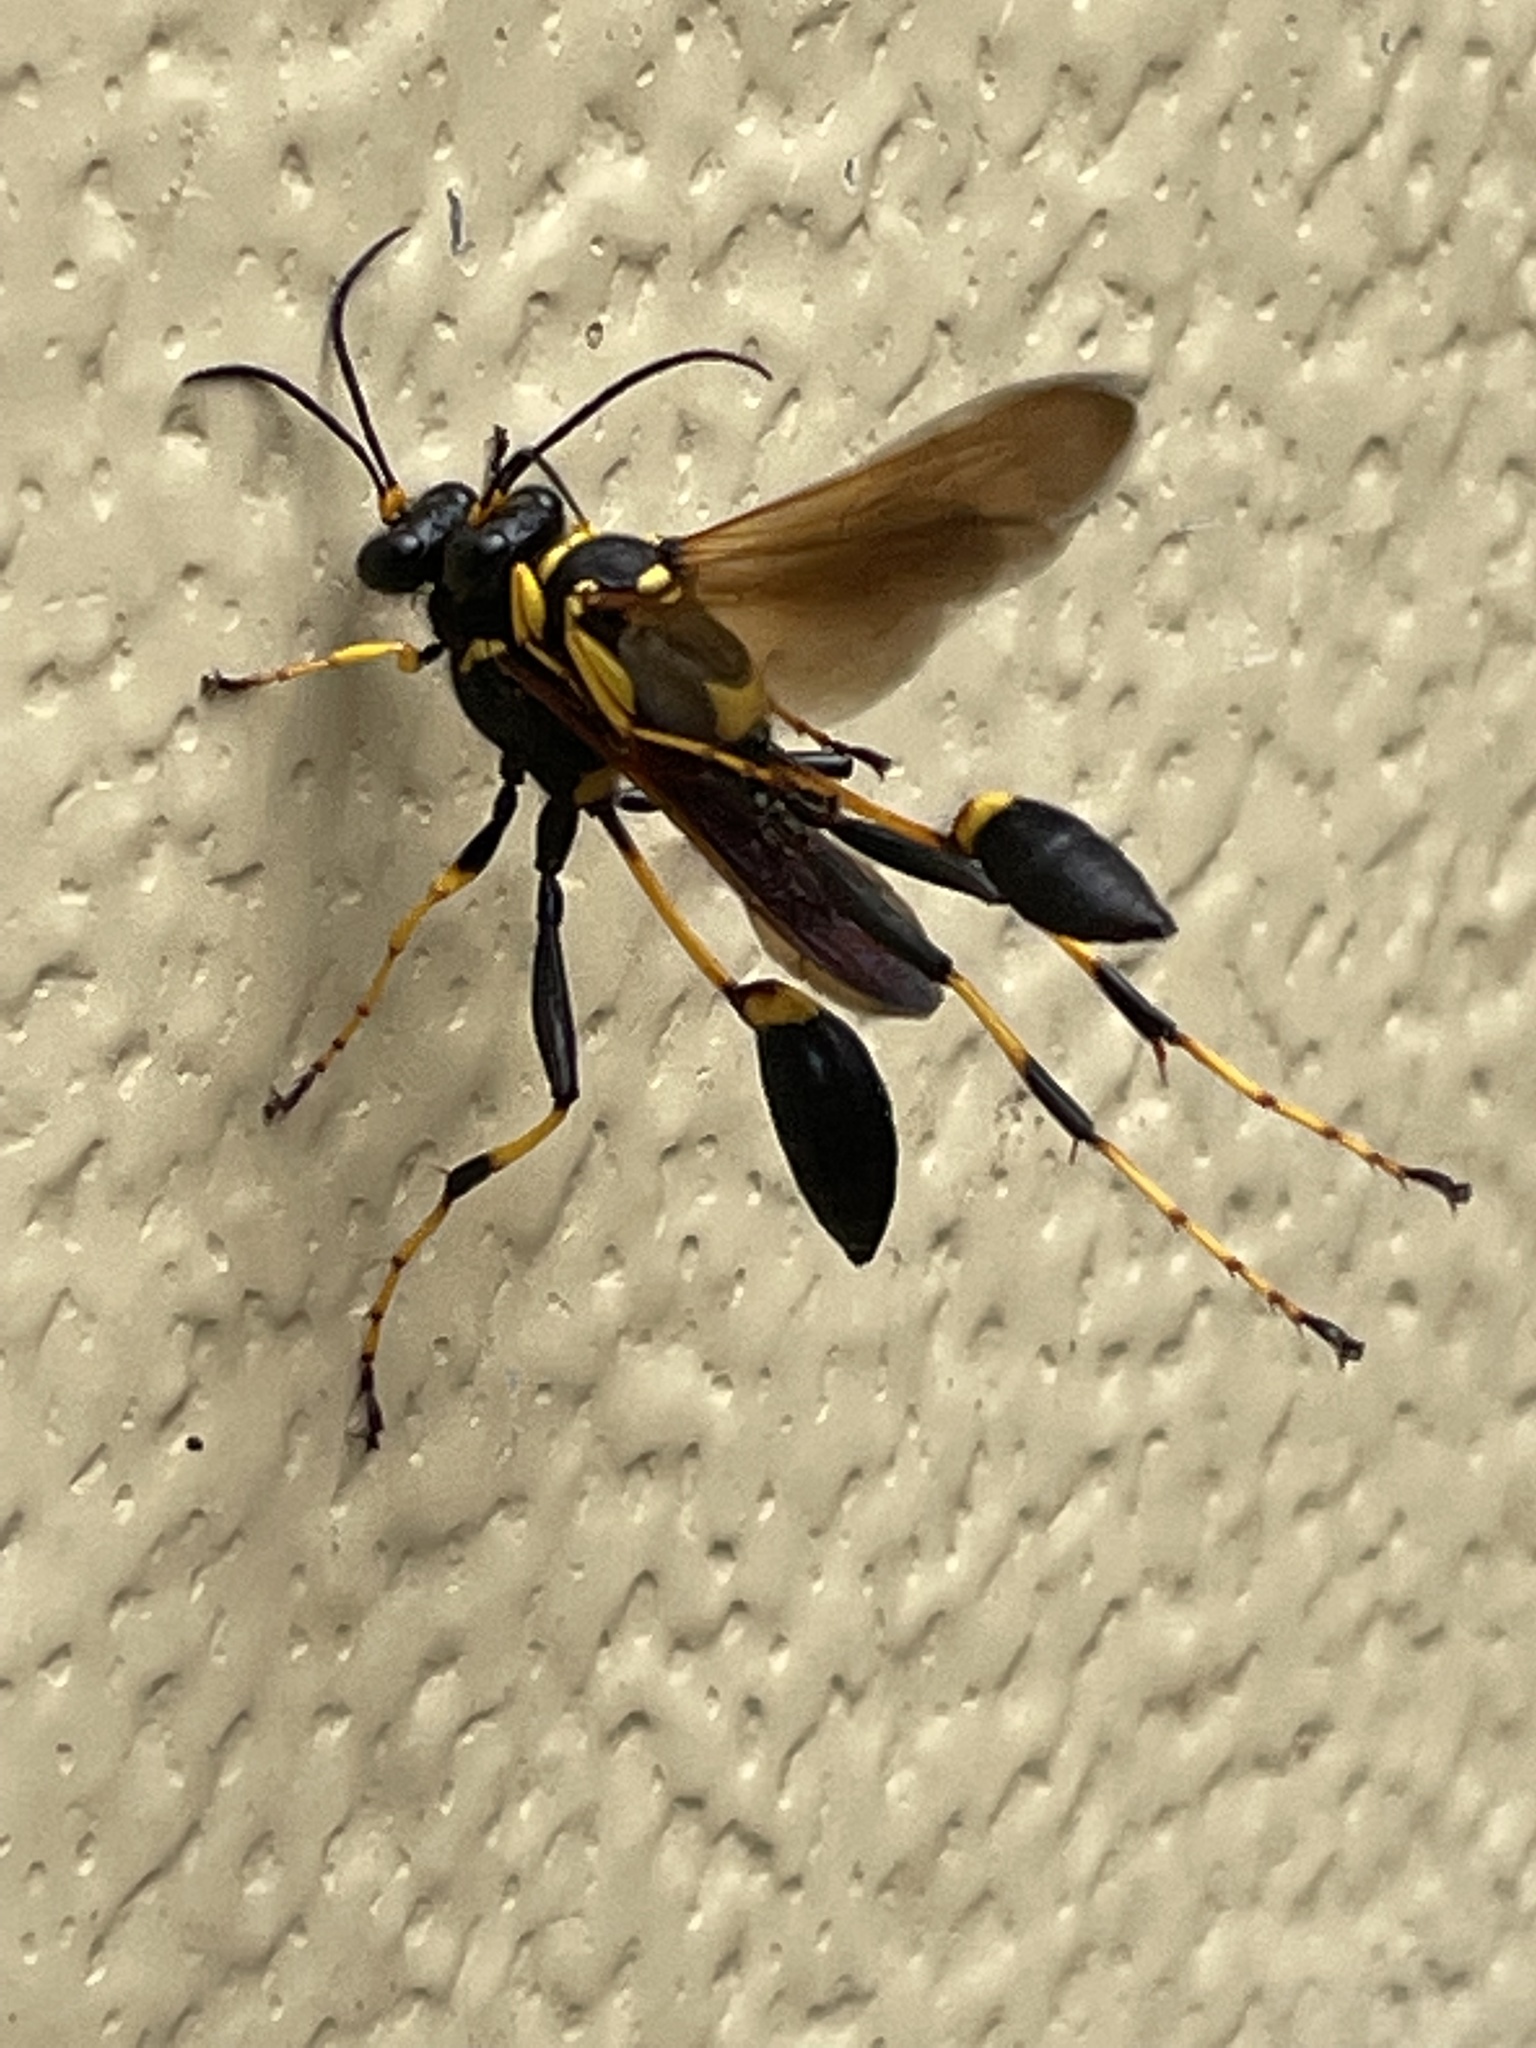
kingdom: Animalia
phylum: Arthropoda
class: Insecta
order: Hymenoptera
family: Sphecidae
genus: Sceliphron
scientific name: Sceliphron caementarium
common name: Mud dauber
